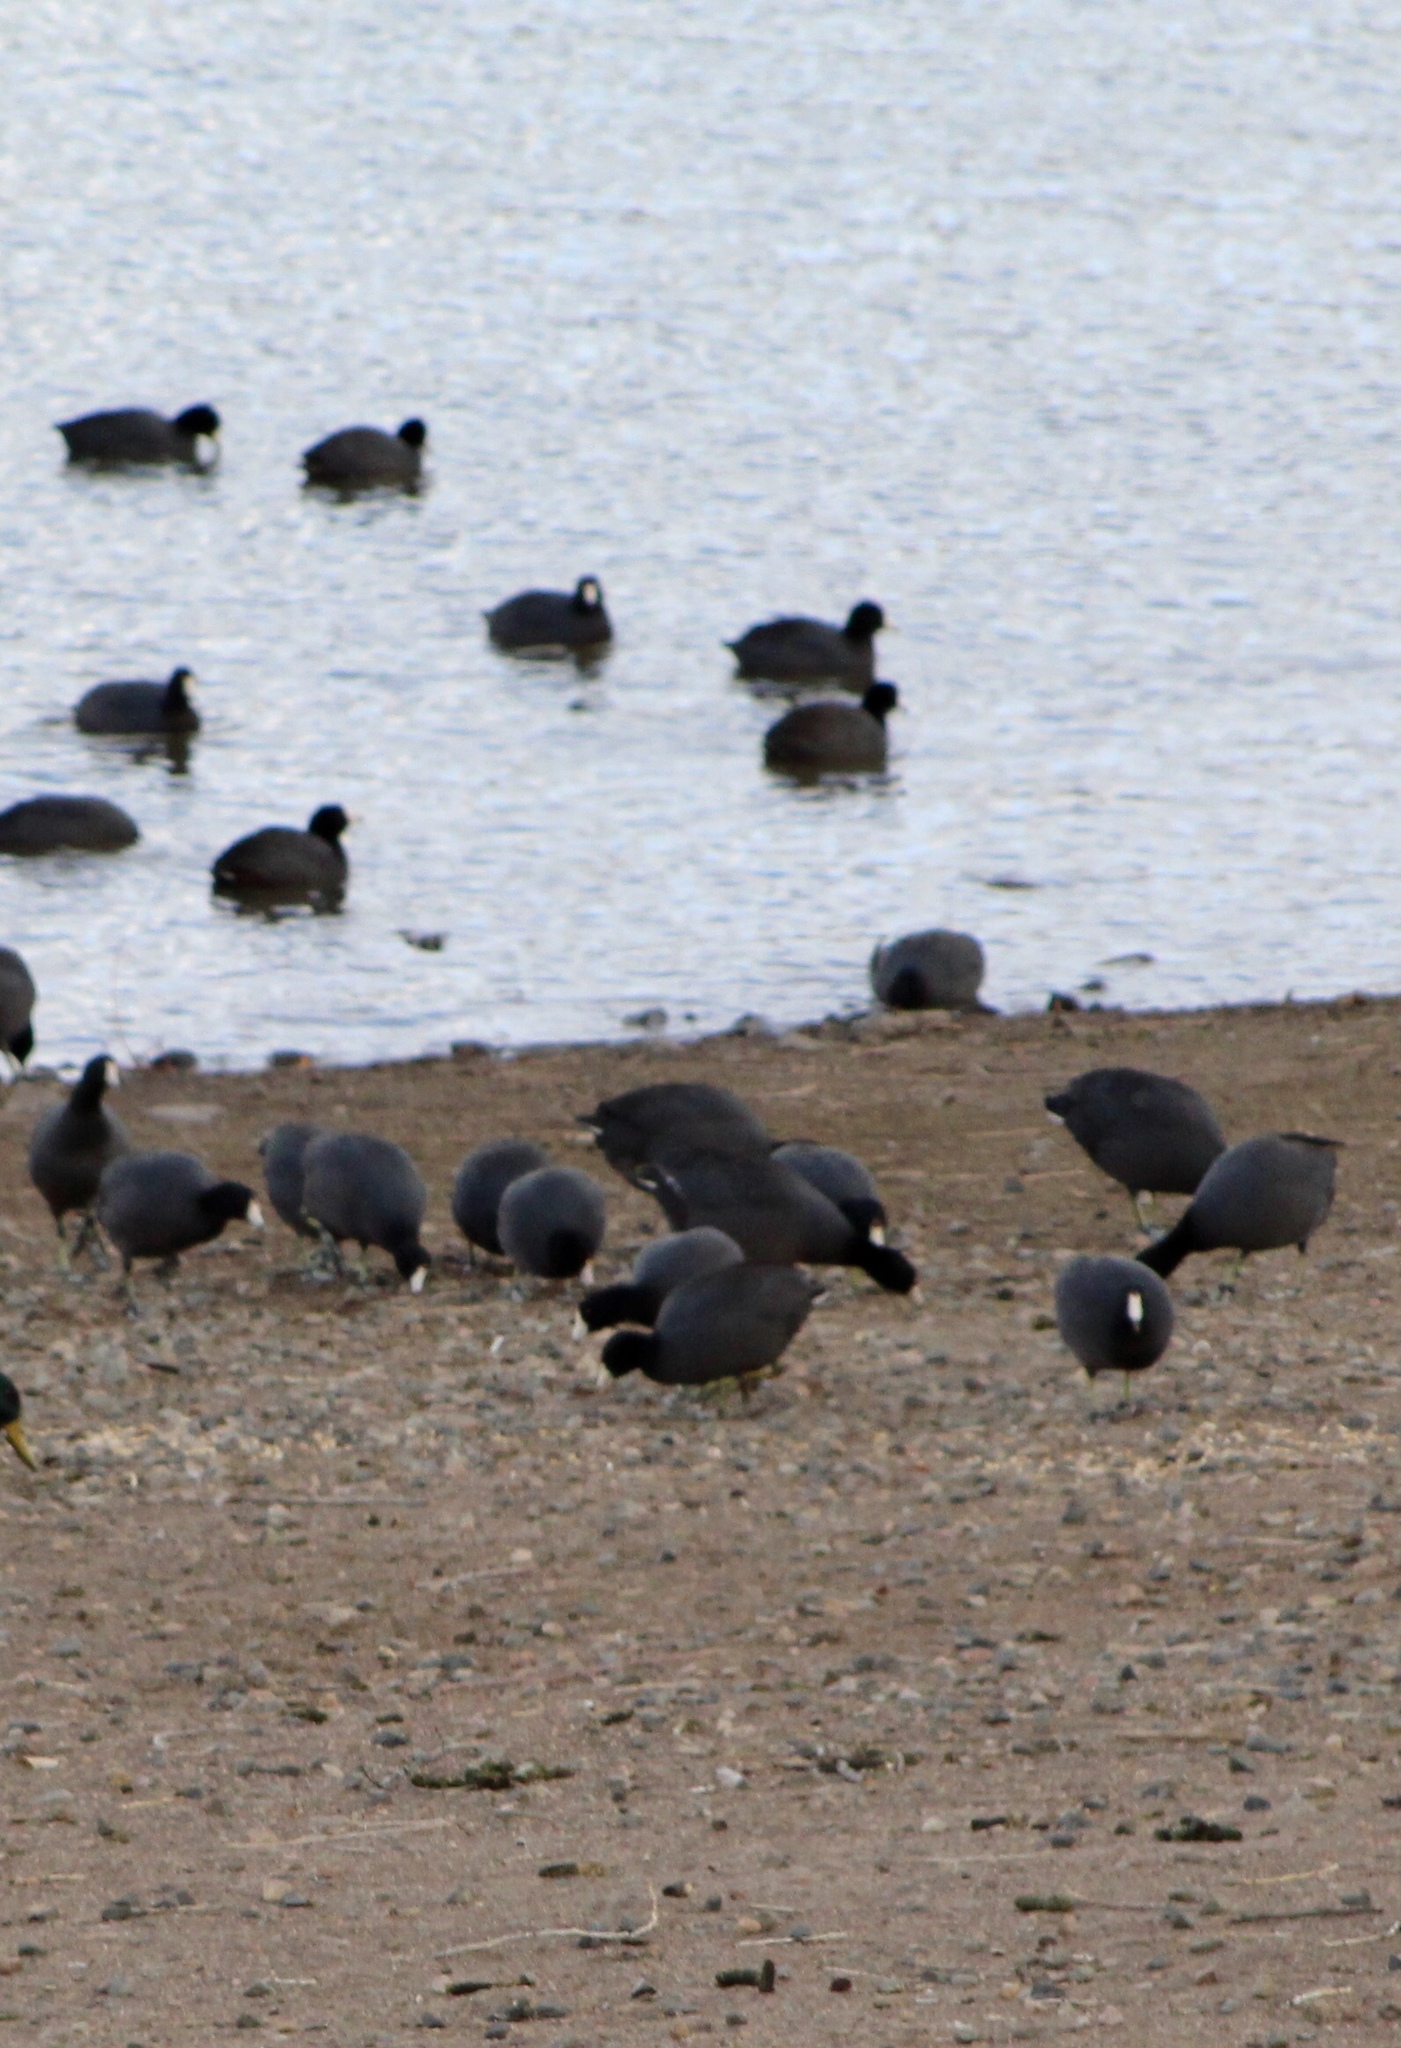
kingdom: Animalia
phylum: Chordata
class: Aves
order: Gruiformes
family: Rallidae
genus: Fulica
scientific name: Fulica americana
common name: American coot
